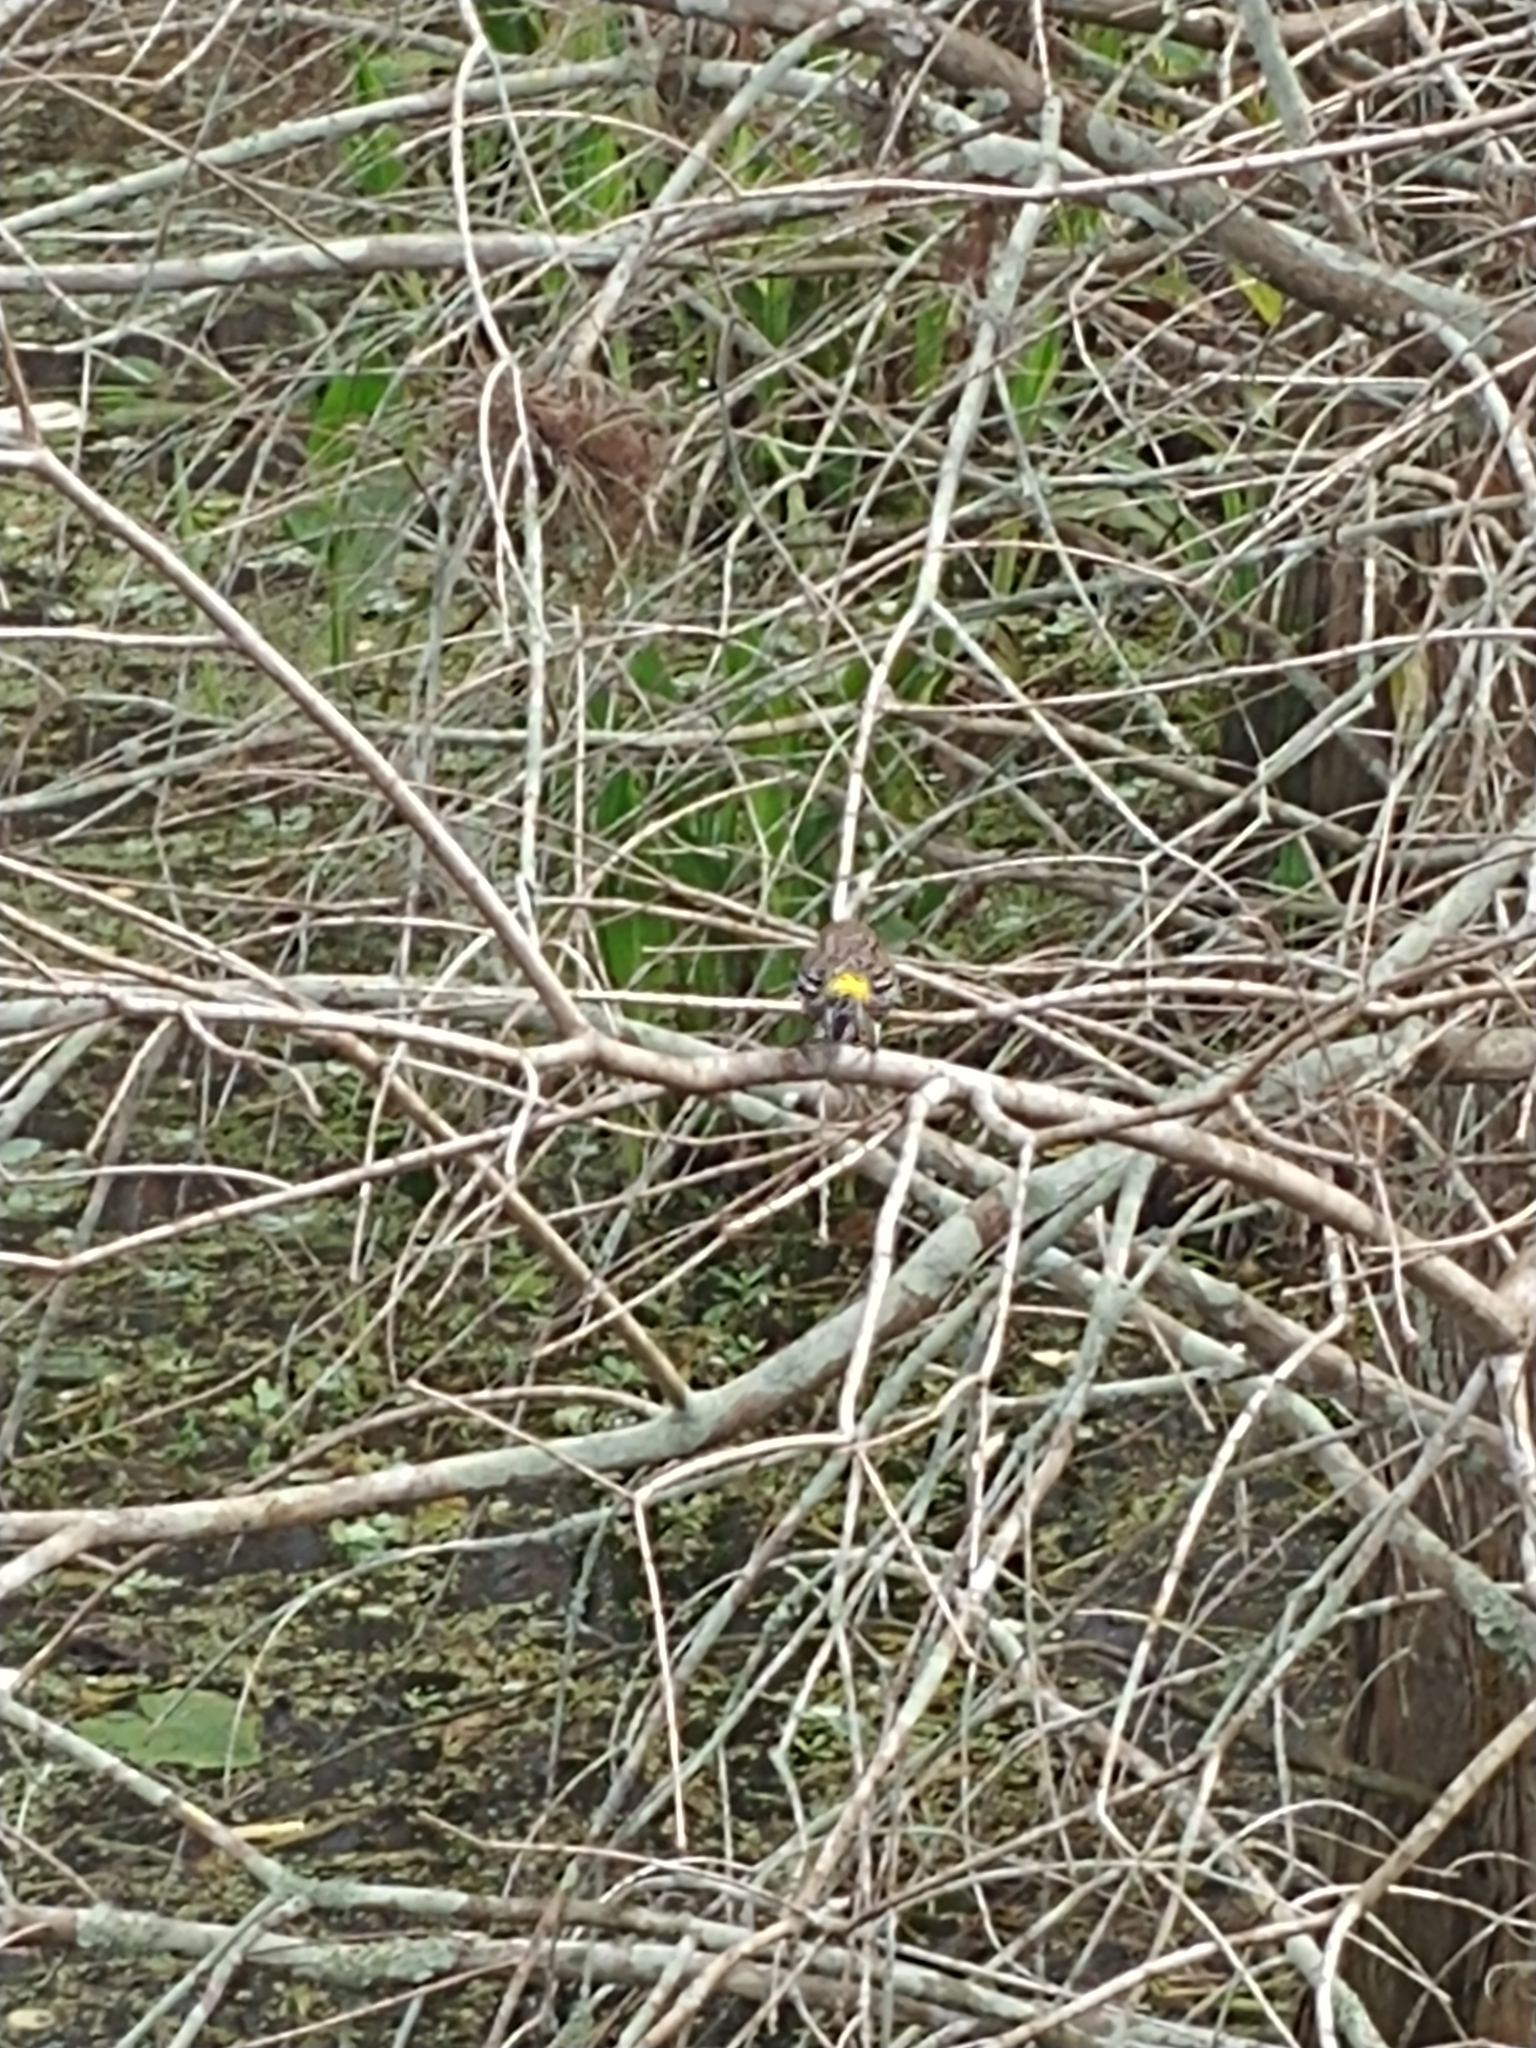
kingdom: Animalia
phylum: Chordata
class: Aves
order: Passeriformes
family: Parulidae
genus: Setophaga
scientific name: Setophaga coronata
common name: Myrtle warbler
